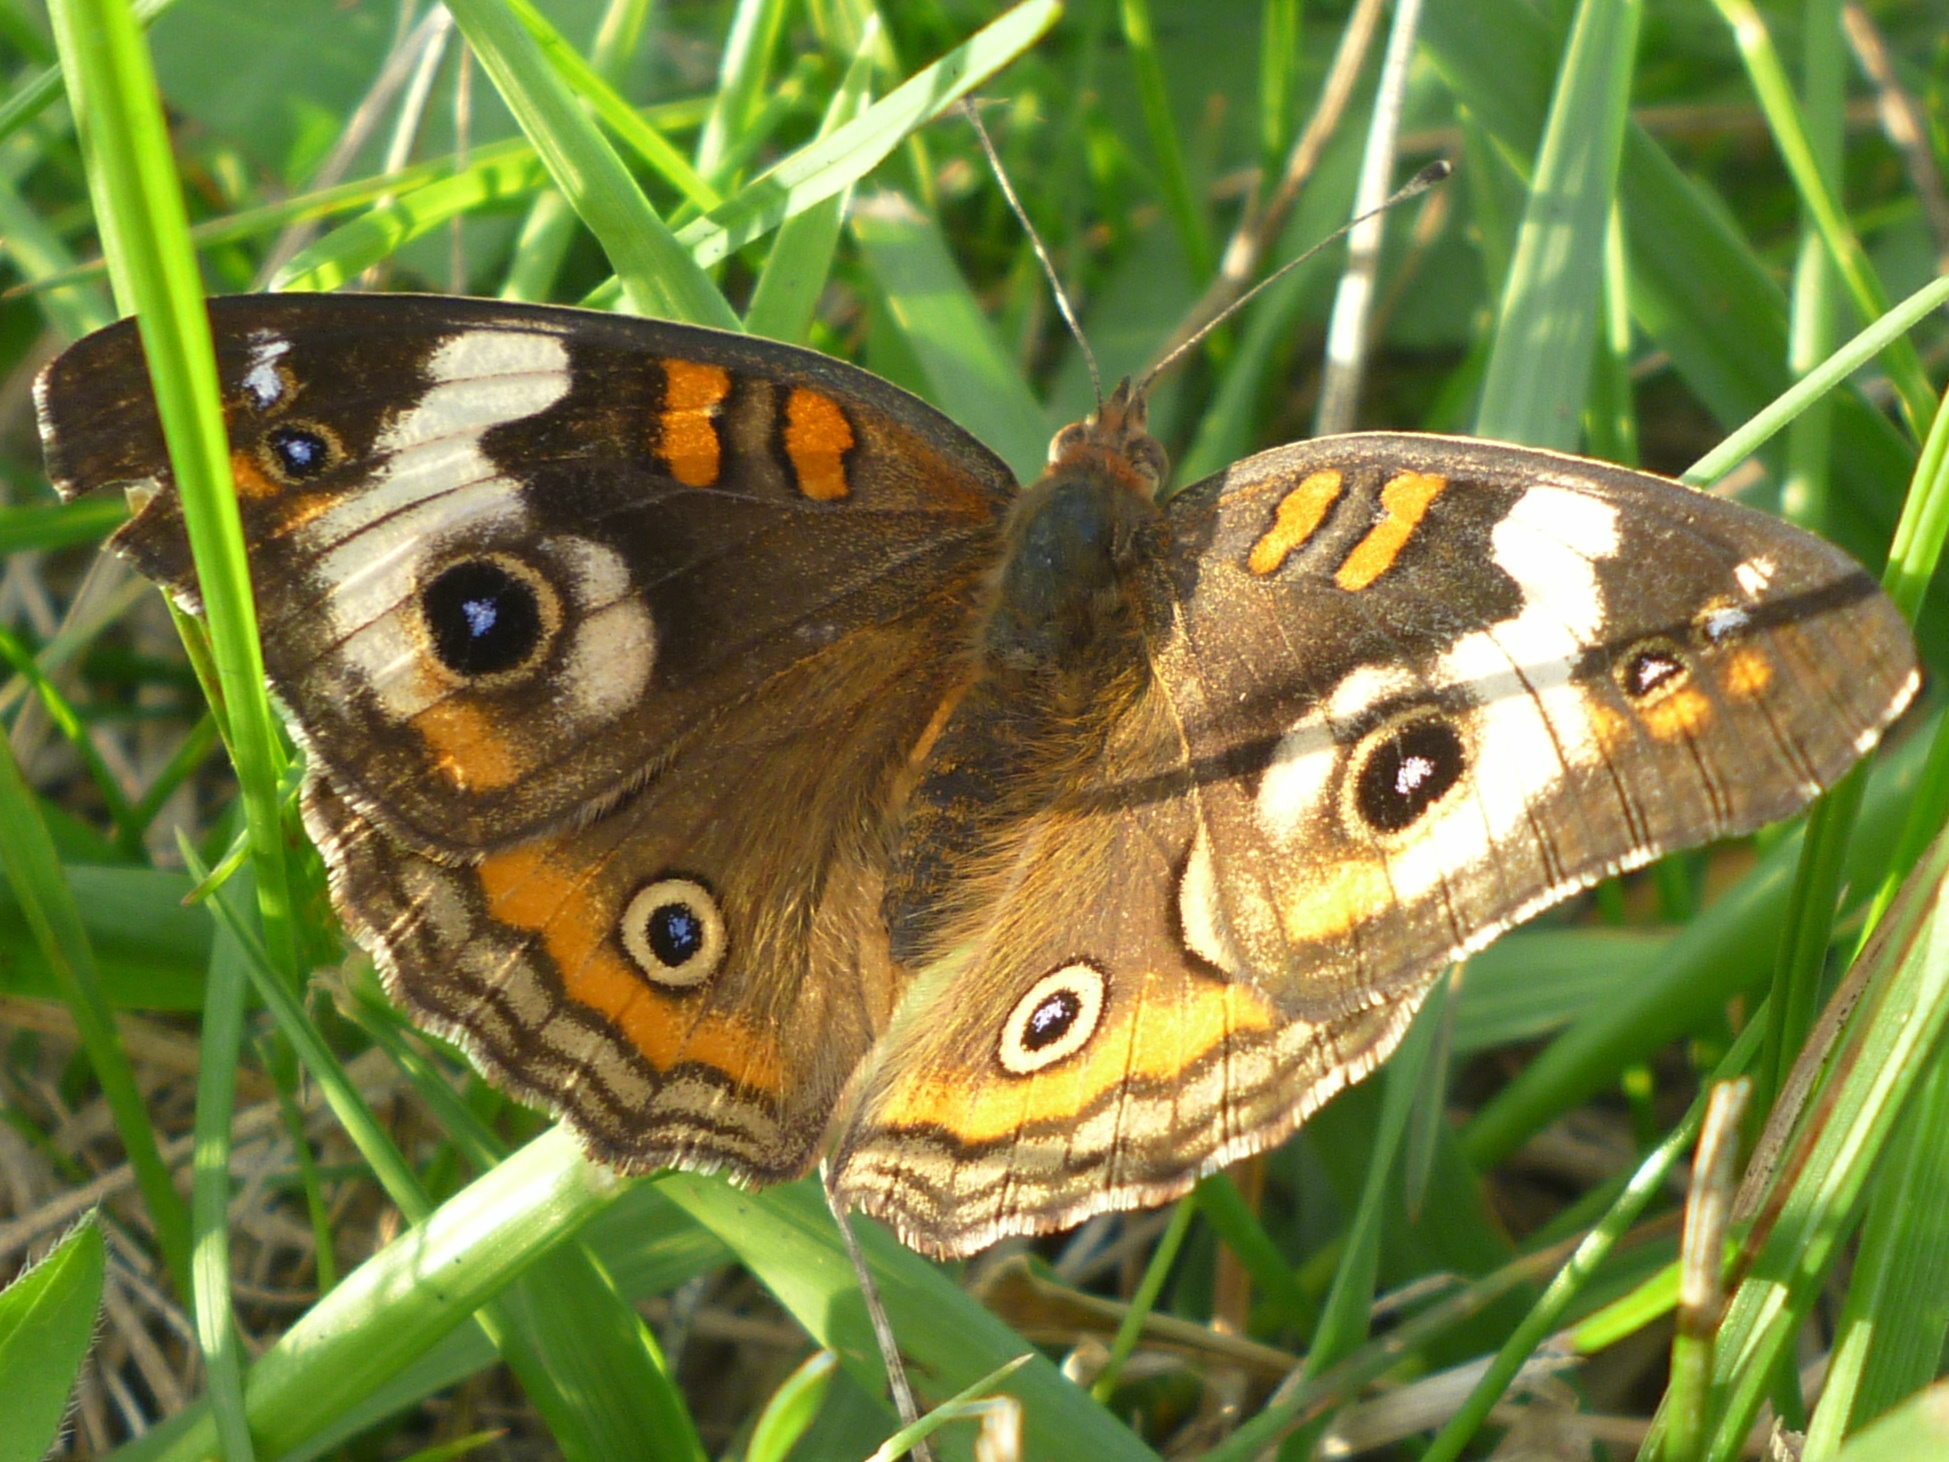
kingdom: Animalia
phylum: Arthropoda
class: Insecta
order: Lepidoptera
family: Nymphalidae
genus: Junonia
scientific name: Junonia coenia
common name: Common buckeye
